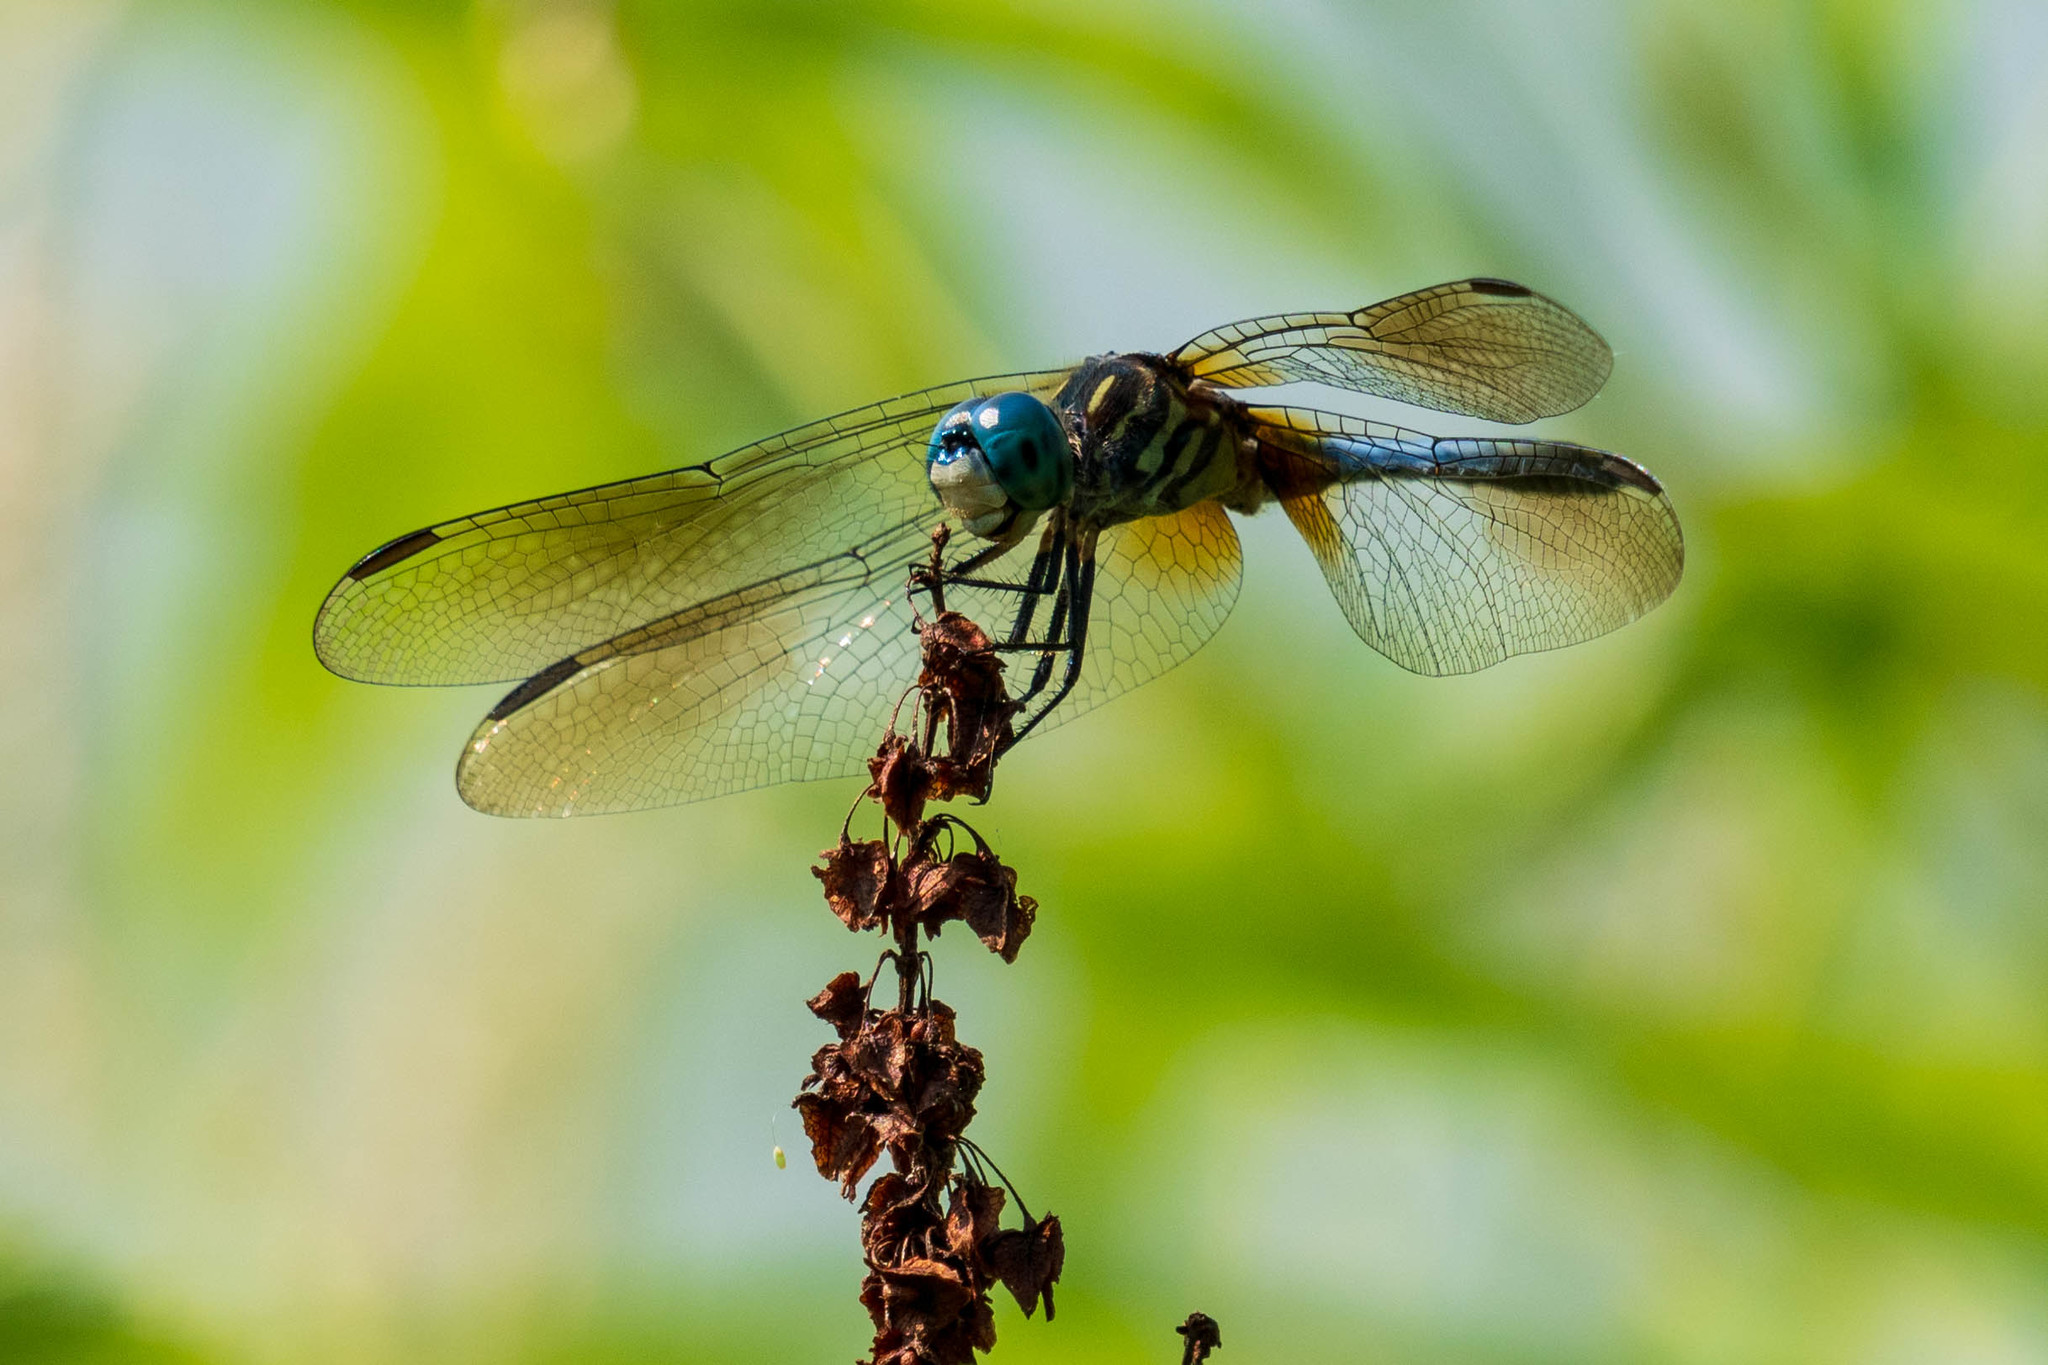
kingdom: Animalia
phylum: Arthropoda
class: Insecta
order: Odonata
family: Libellulidae
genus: Pachydiplax
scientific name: Pachydiplax longipennis
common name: Blue dasher
